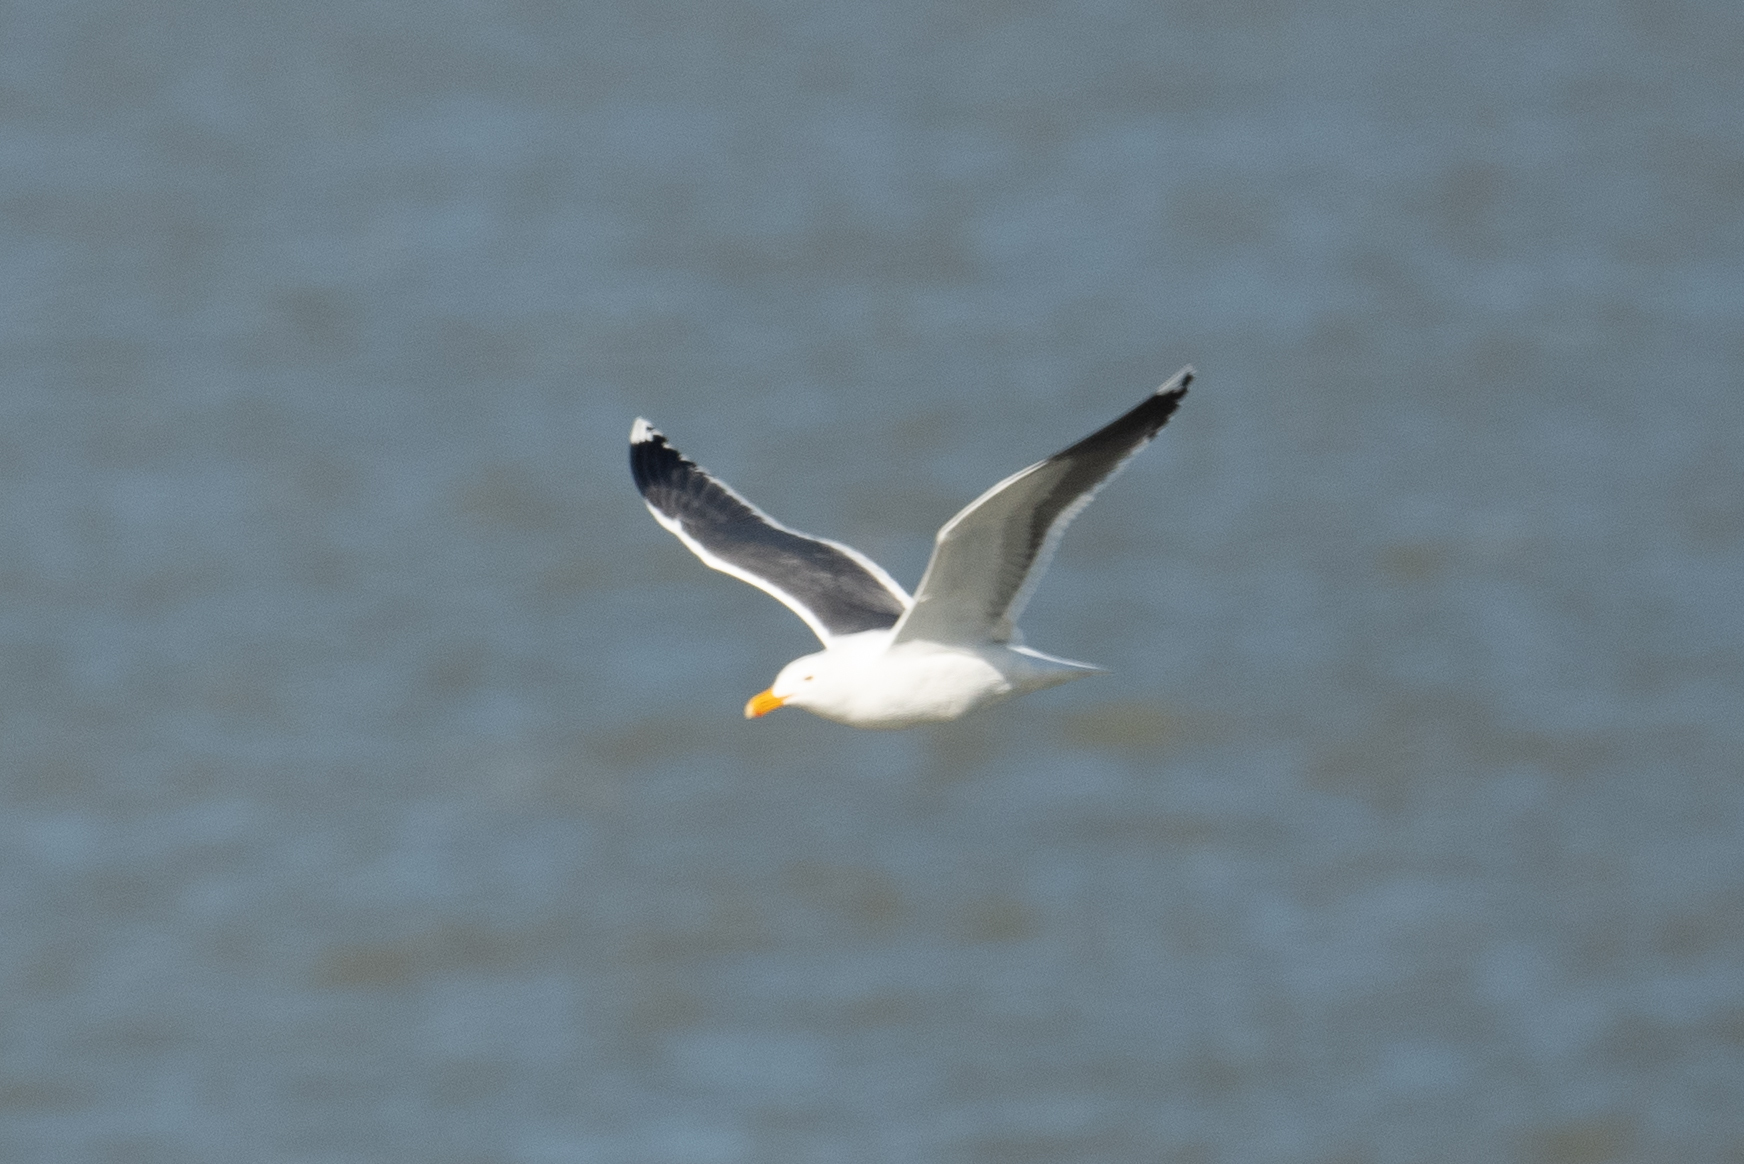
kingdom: Animalia
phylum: Chordata
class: Aves
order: Charadriiformes
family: Laridae
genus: Larus
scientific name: Larus occidentalis
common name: Western gull
